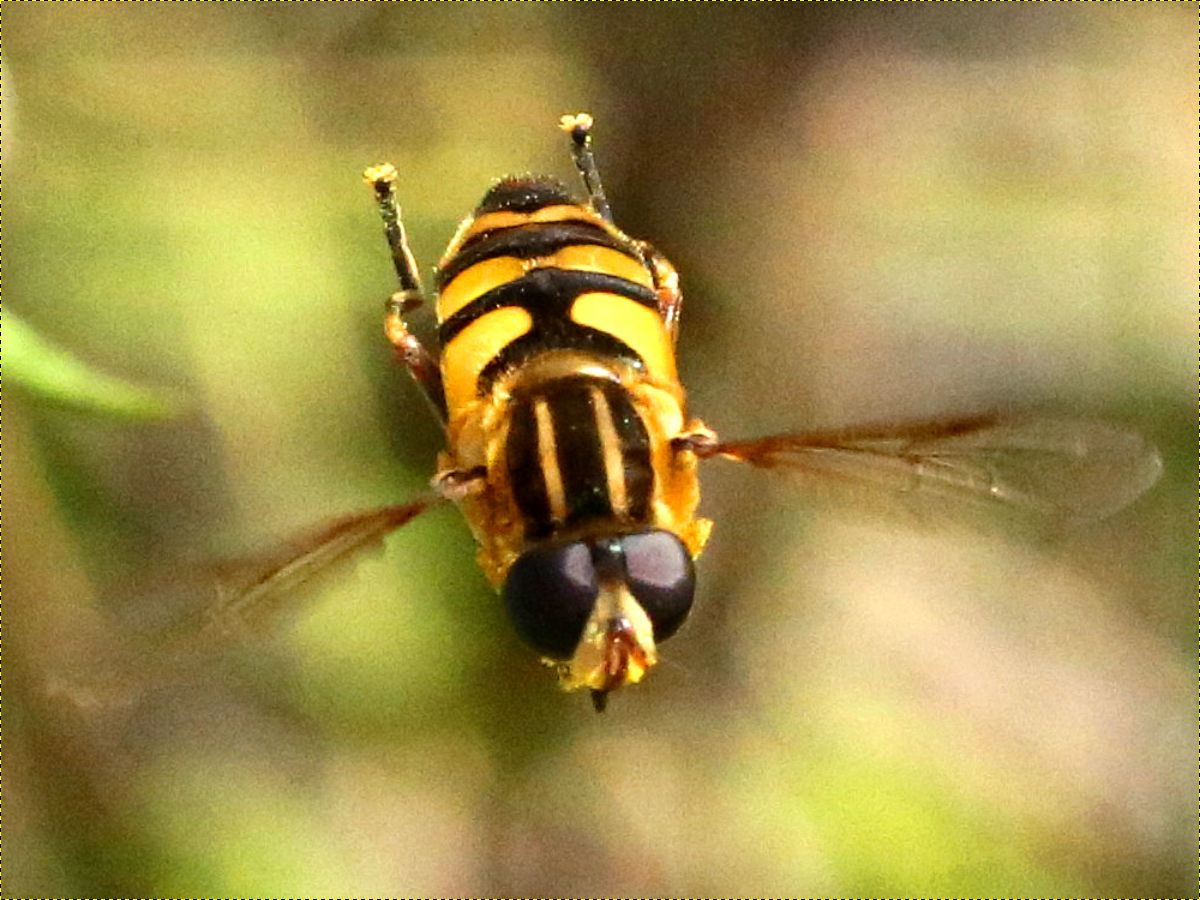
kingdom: Animalia
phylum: Arthropoda
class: Insecta
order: Diptera
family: Syrphidae
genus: Helophilus
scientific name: Helophilus fasciatus
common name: Narrow-headed marsh fly
